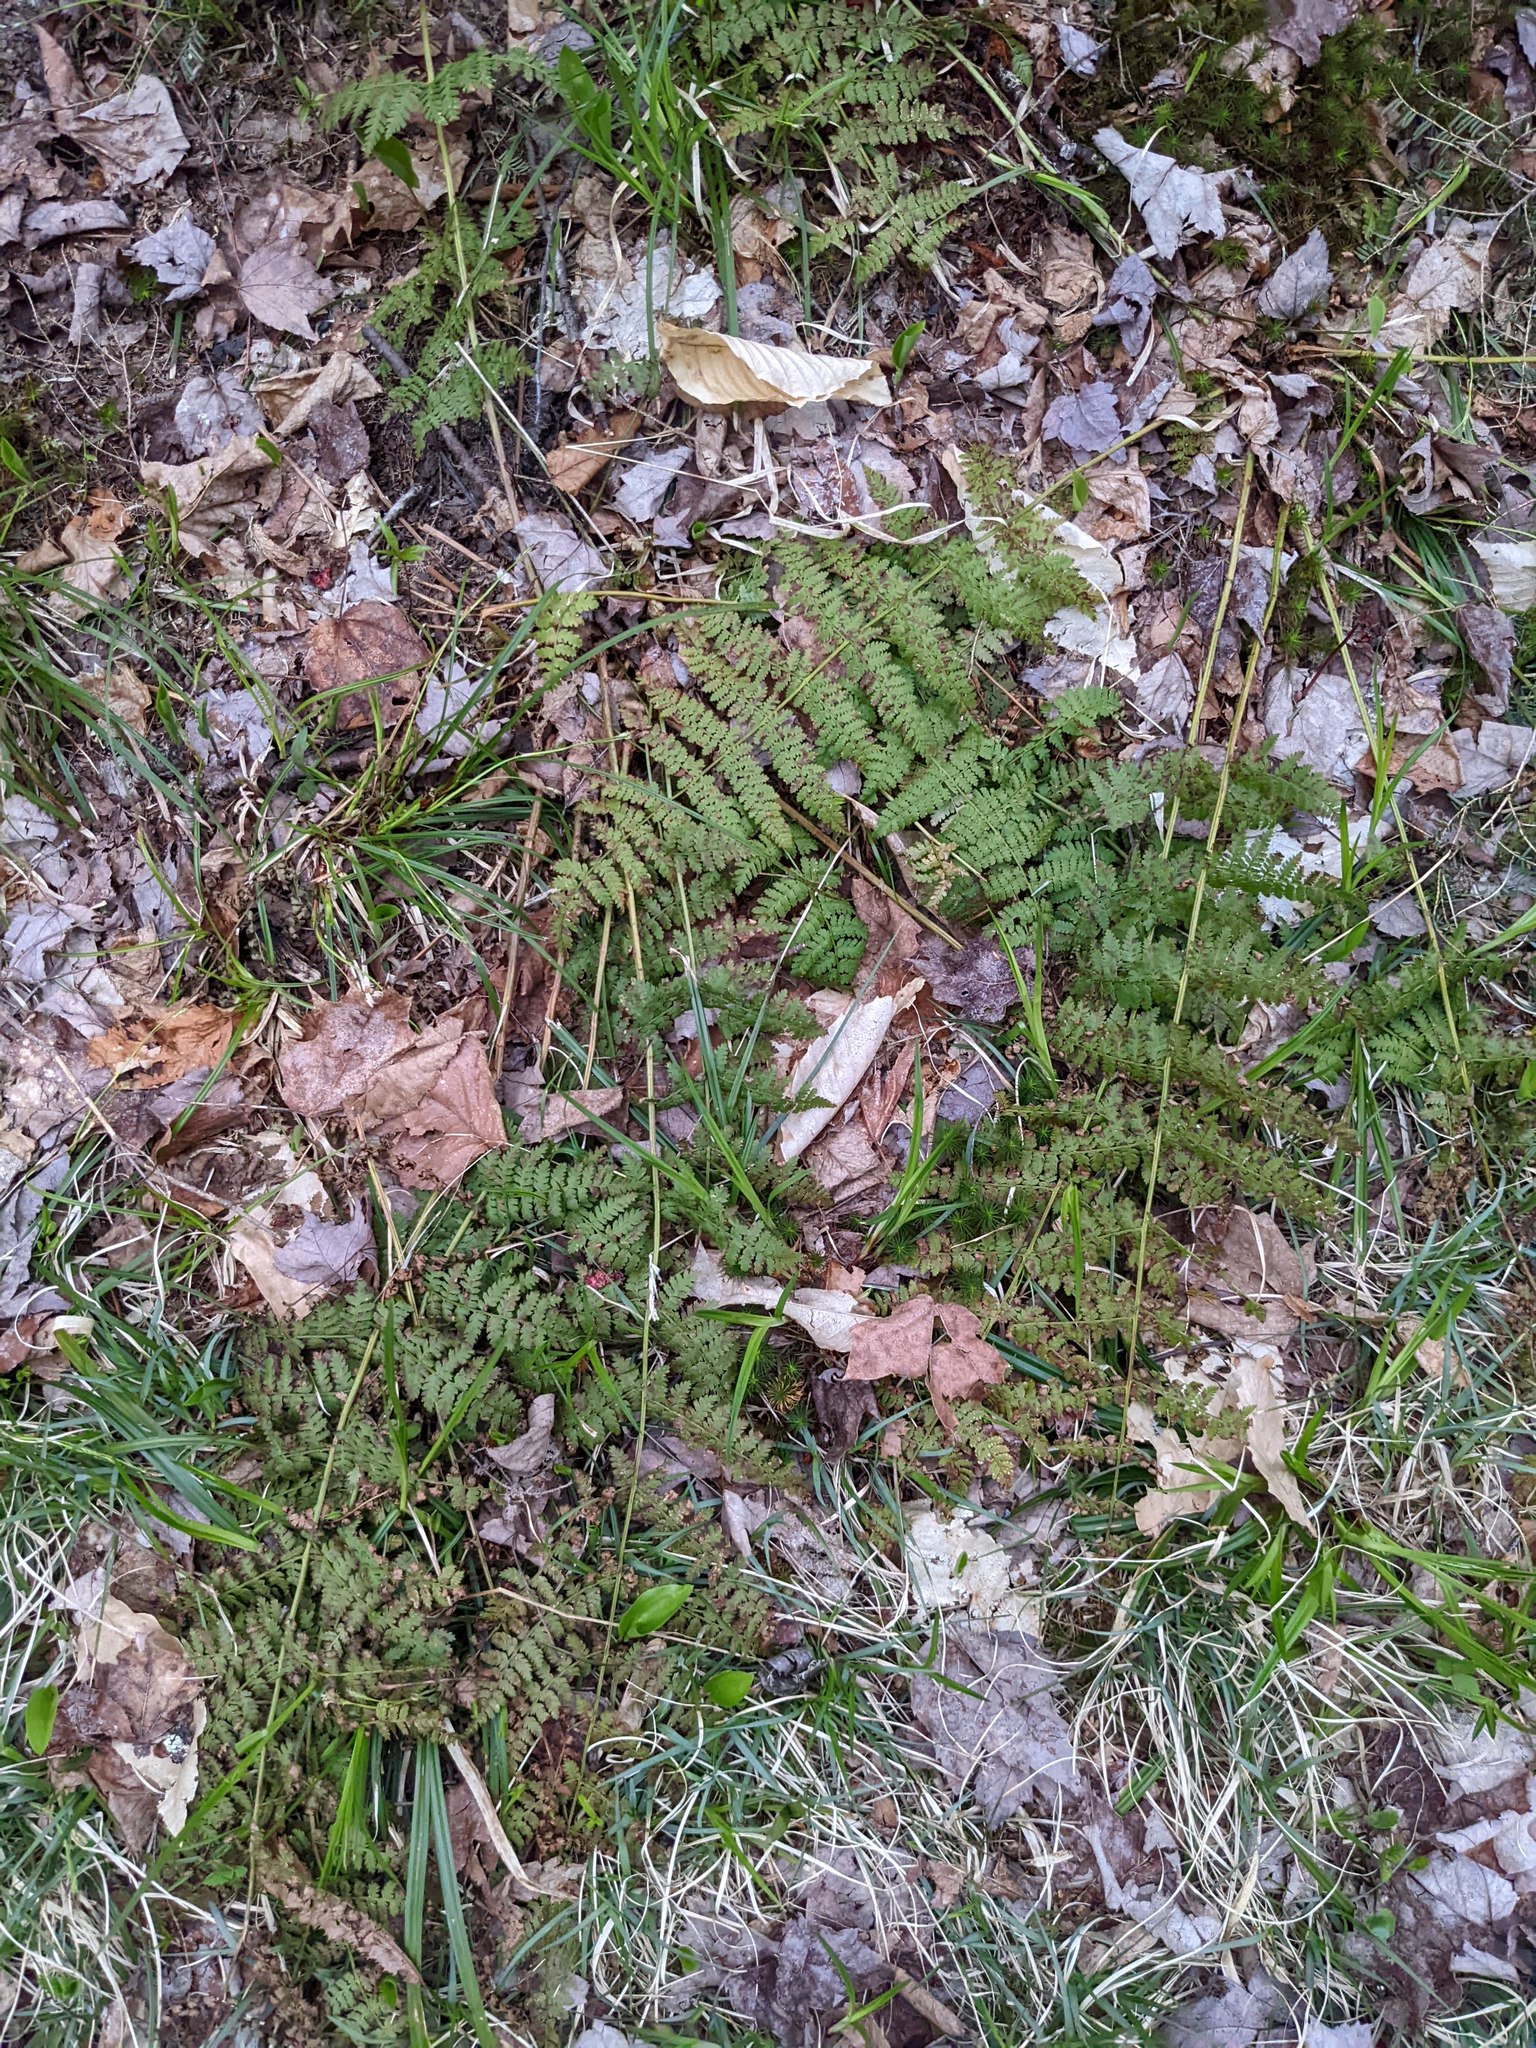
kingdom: Plantae
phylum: Tracheophyta
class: Polypodiopsida
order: Polypodiales
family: Dryopteridaceae
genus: Dryopteris
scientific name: Dryopteris intermedia
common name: Evergreen wood fern
